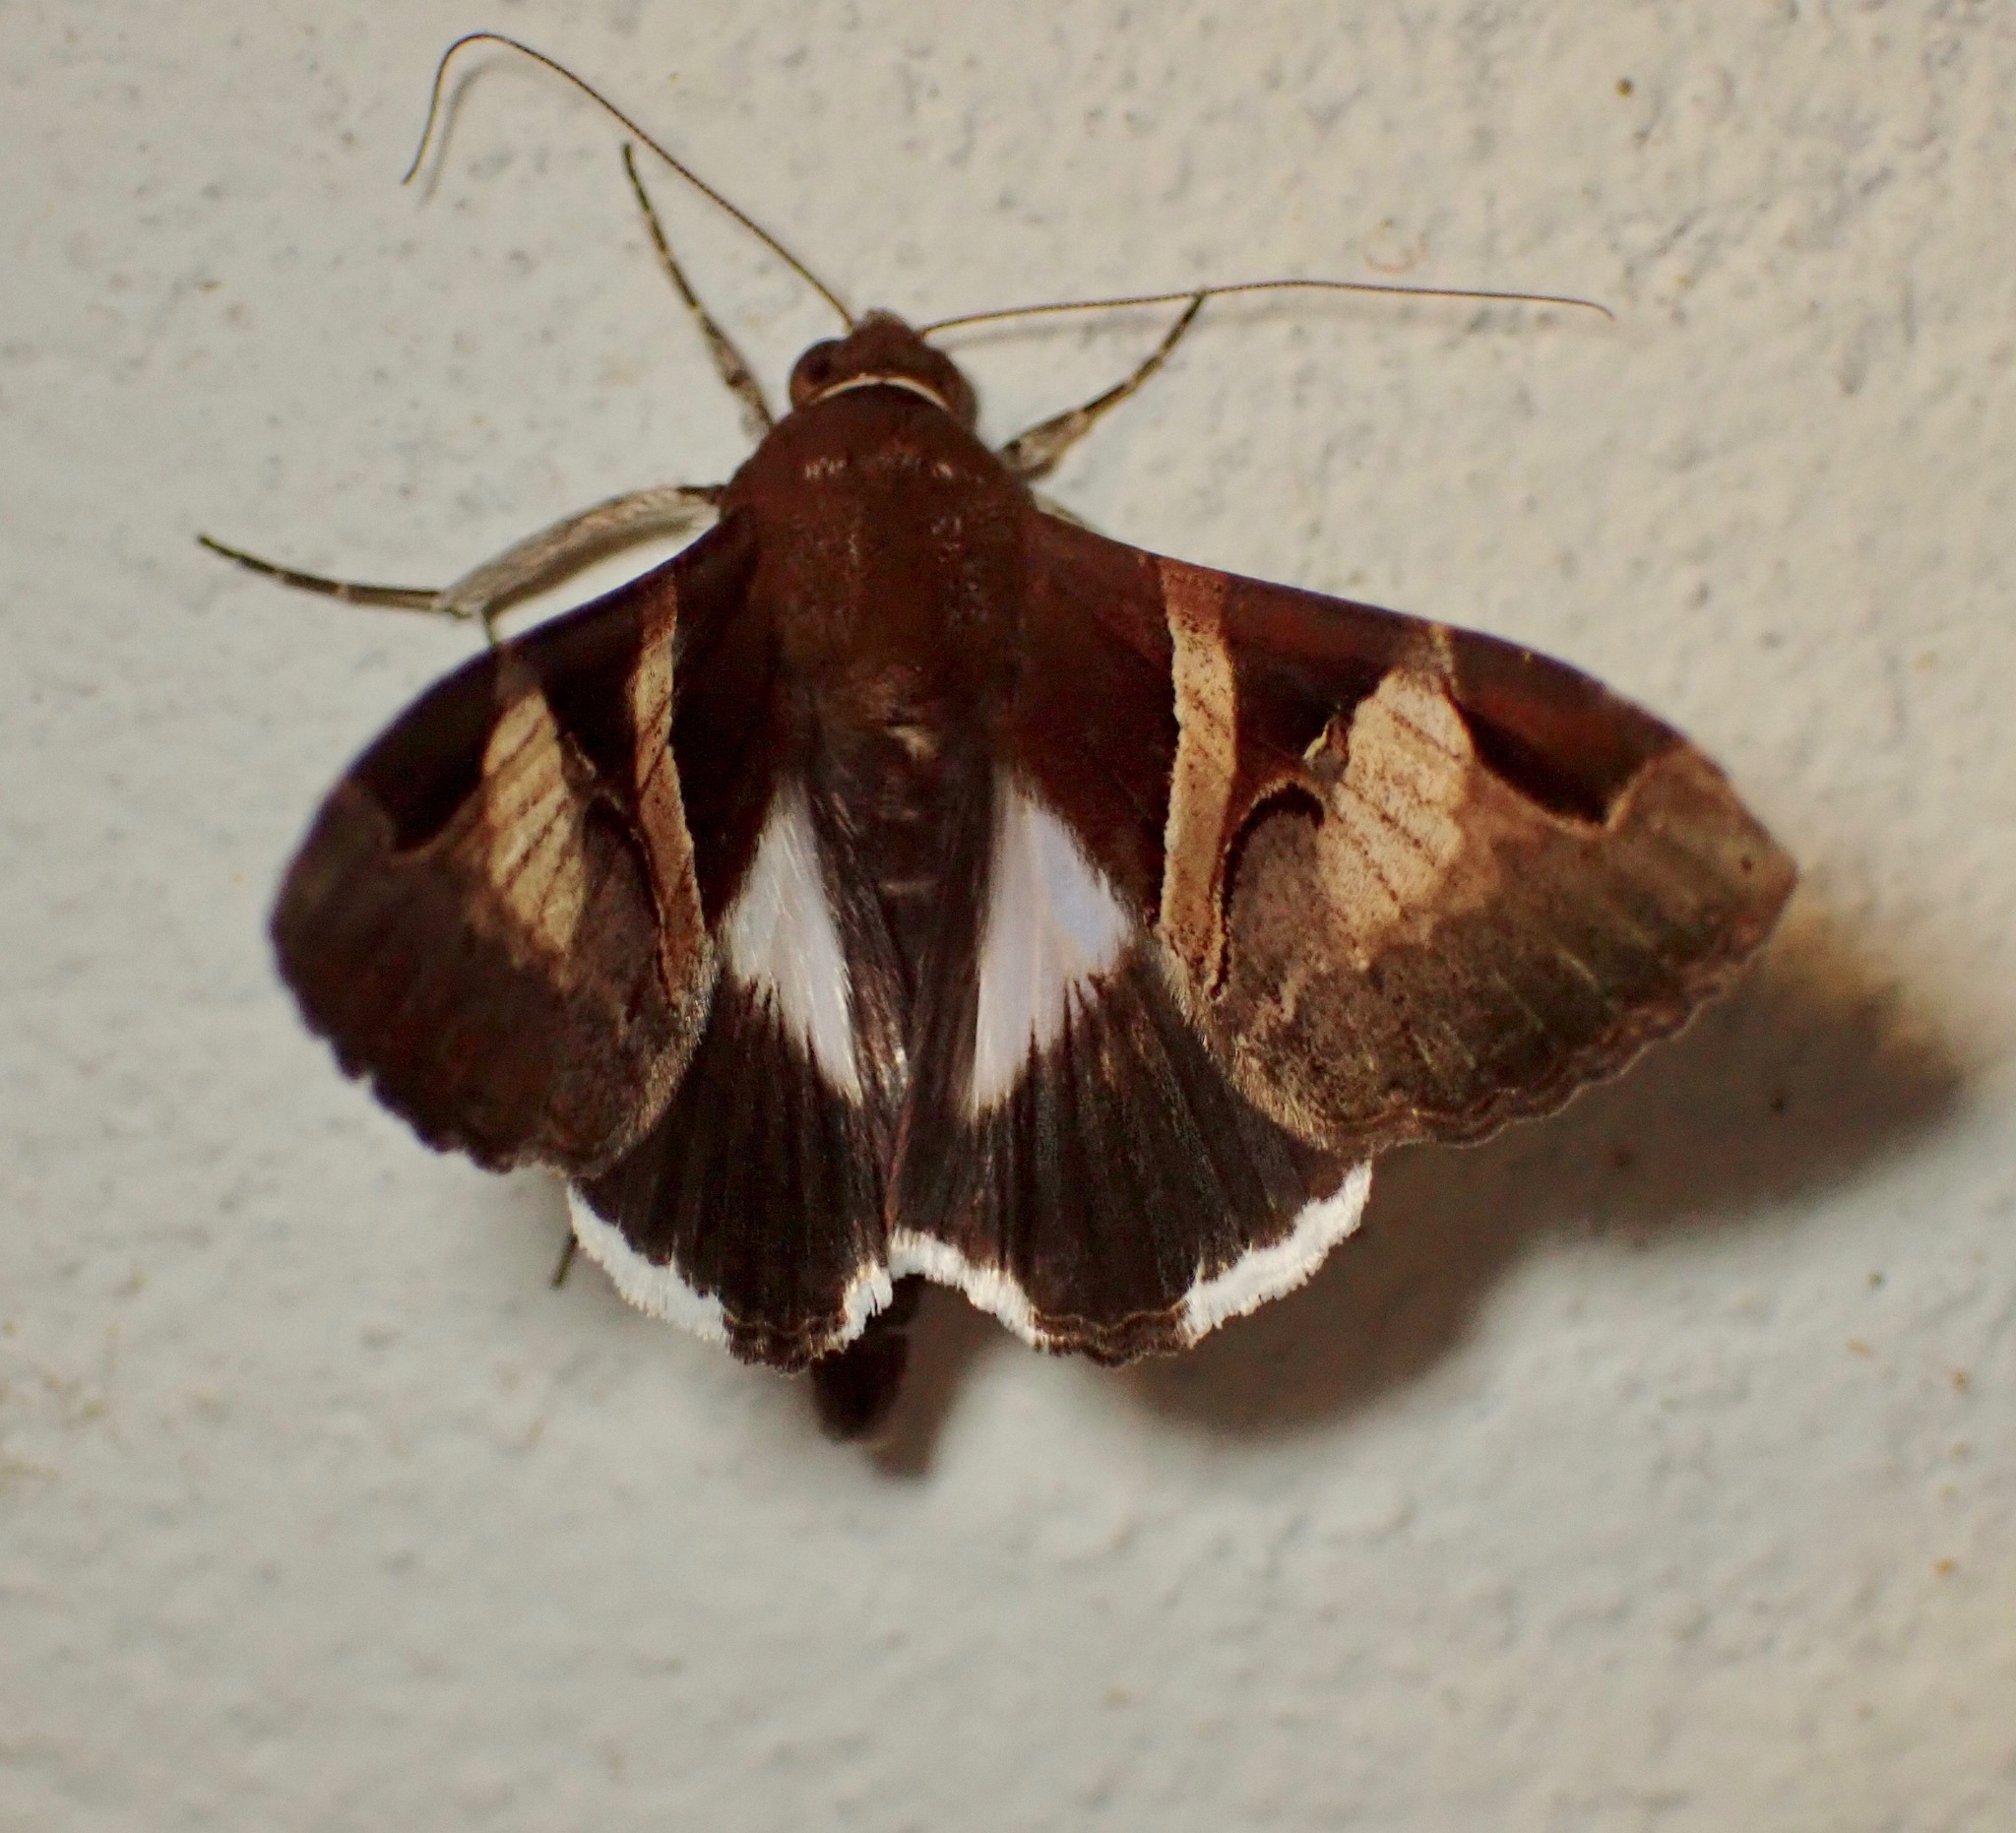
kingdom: Animalia
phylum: Arthropoda
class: Insecta
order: Lepidoptera
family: Erebidae
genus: Melipotis
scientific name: Melipotis fasciolaris
